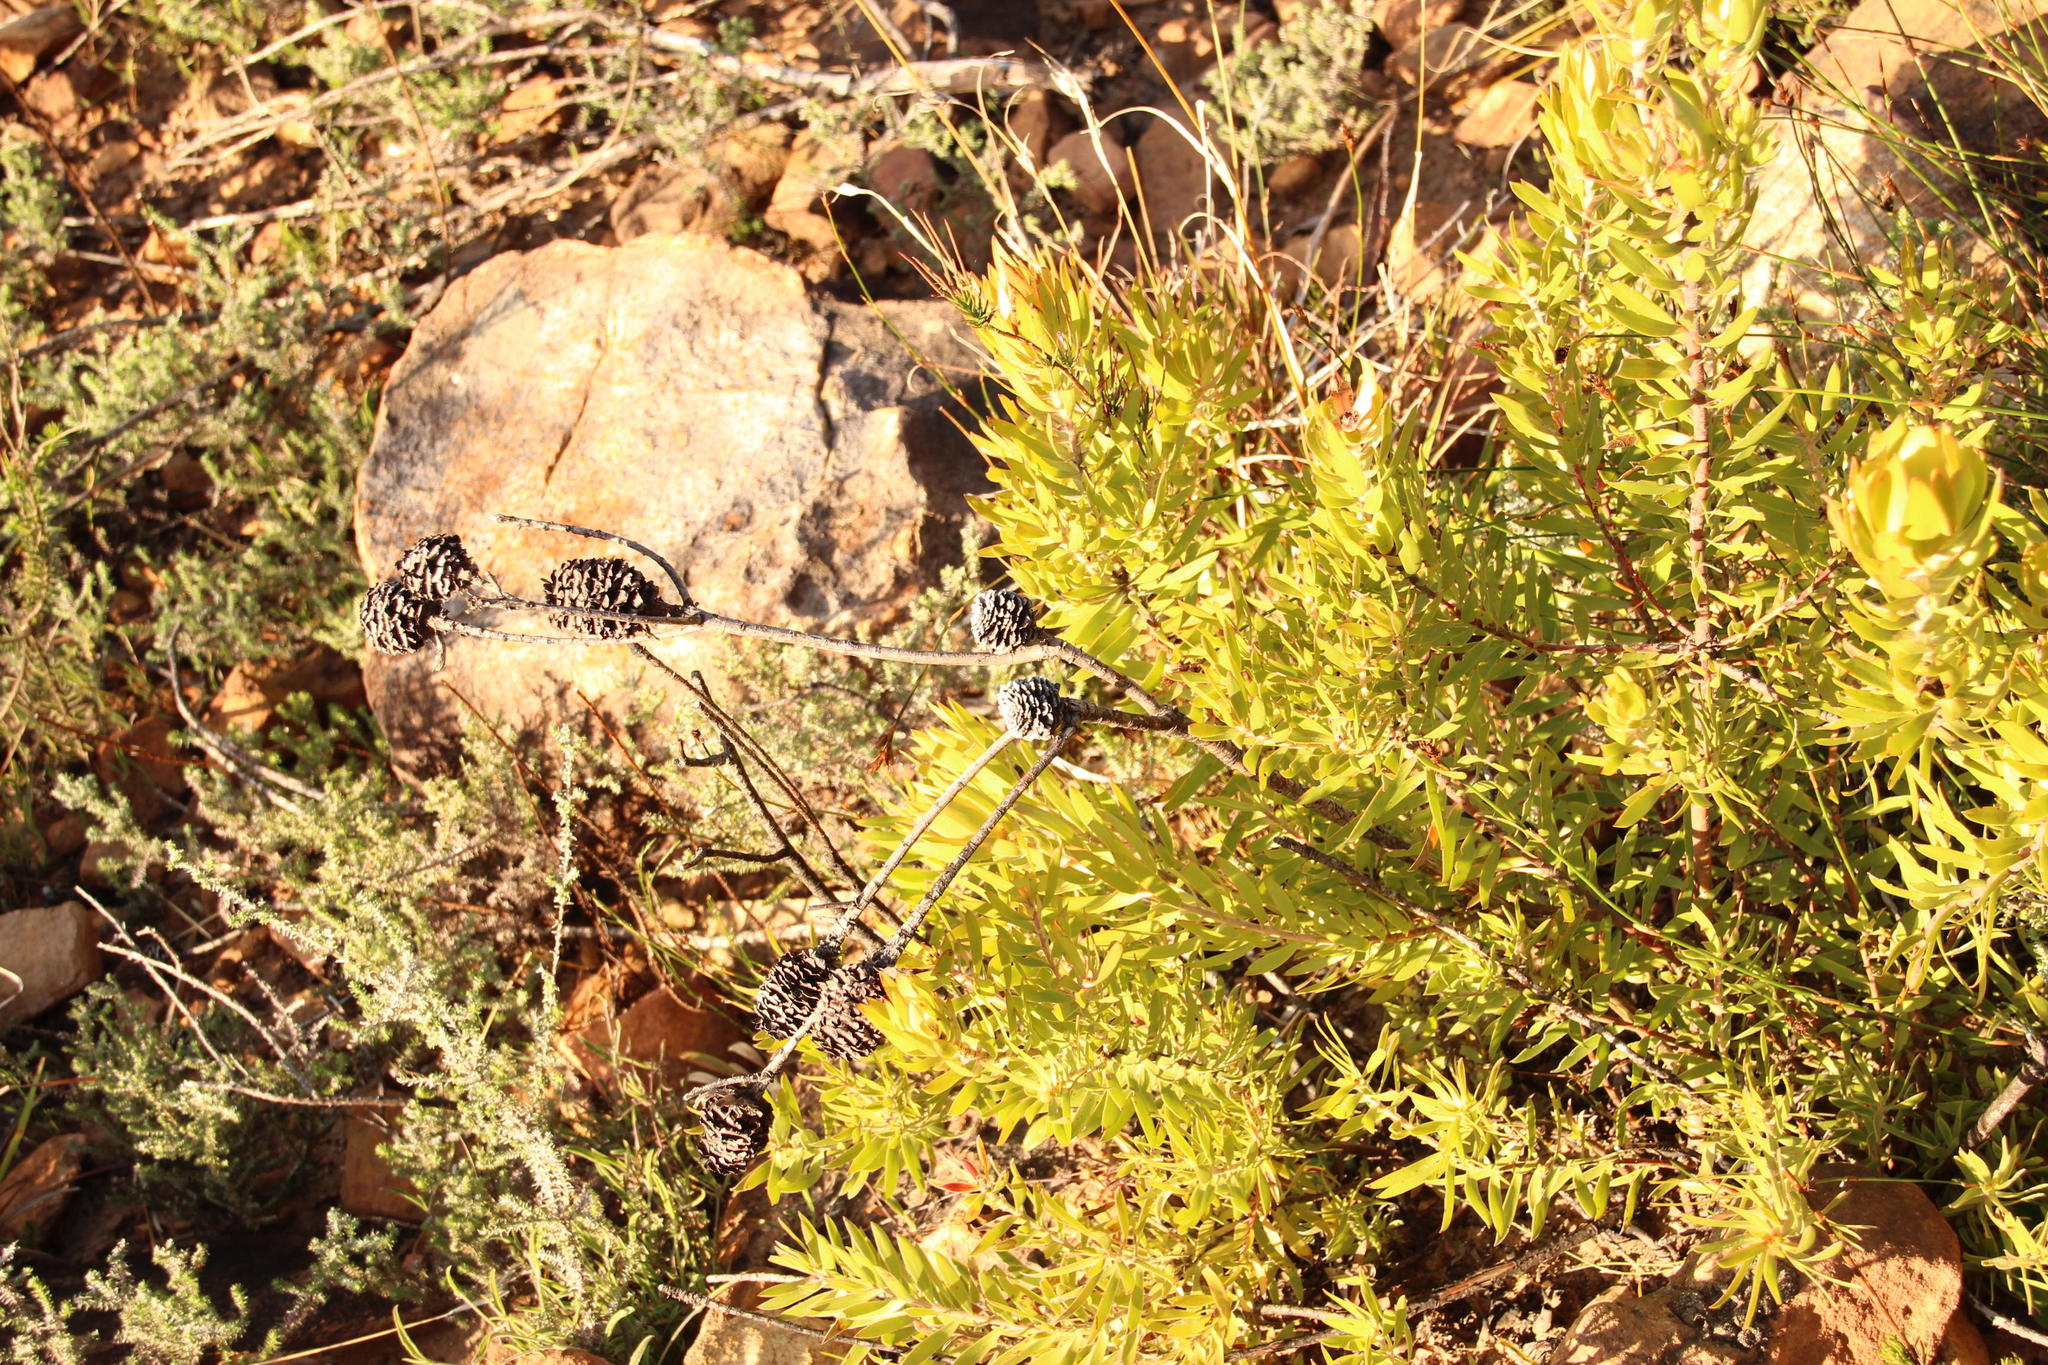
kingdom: Plantae
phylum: Tracheophyta
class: Magnoliopsida
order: Proteales
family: Proteaceae
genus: Leucadendron
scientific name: Leucadendron spissifolium
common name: Spear-leaf conebush
